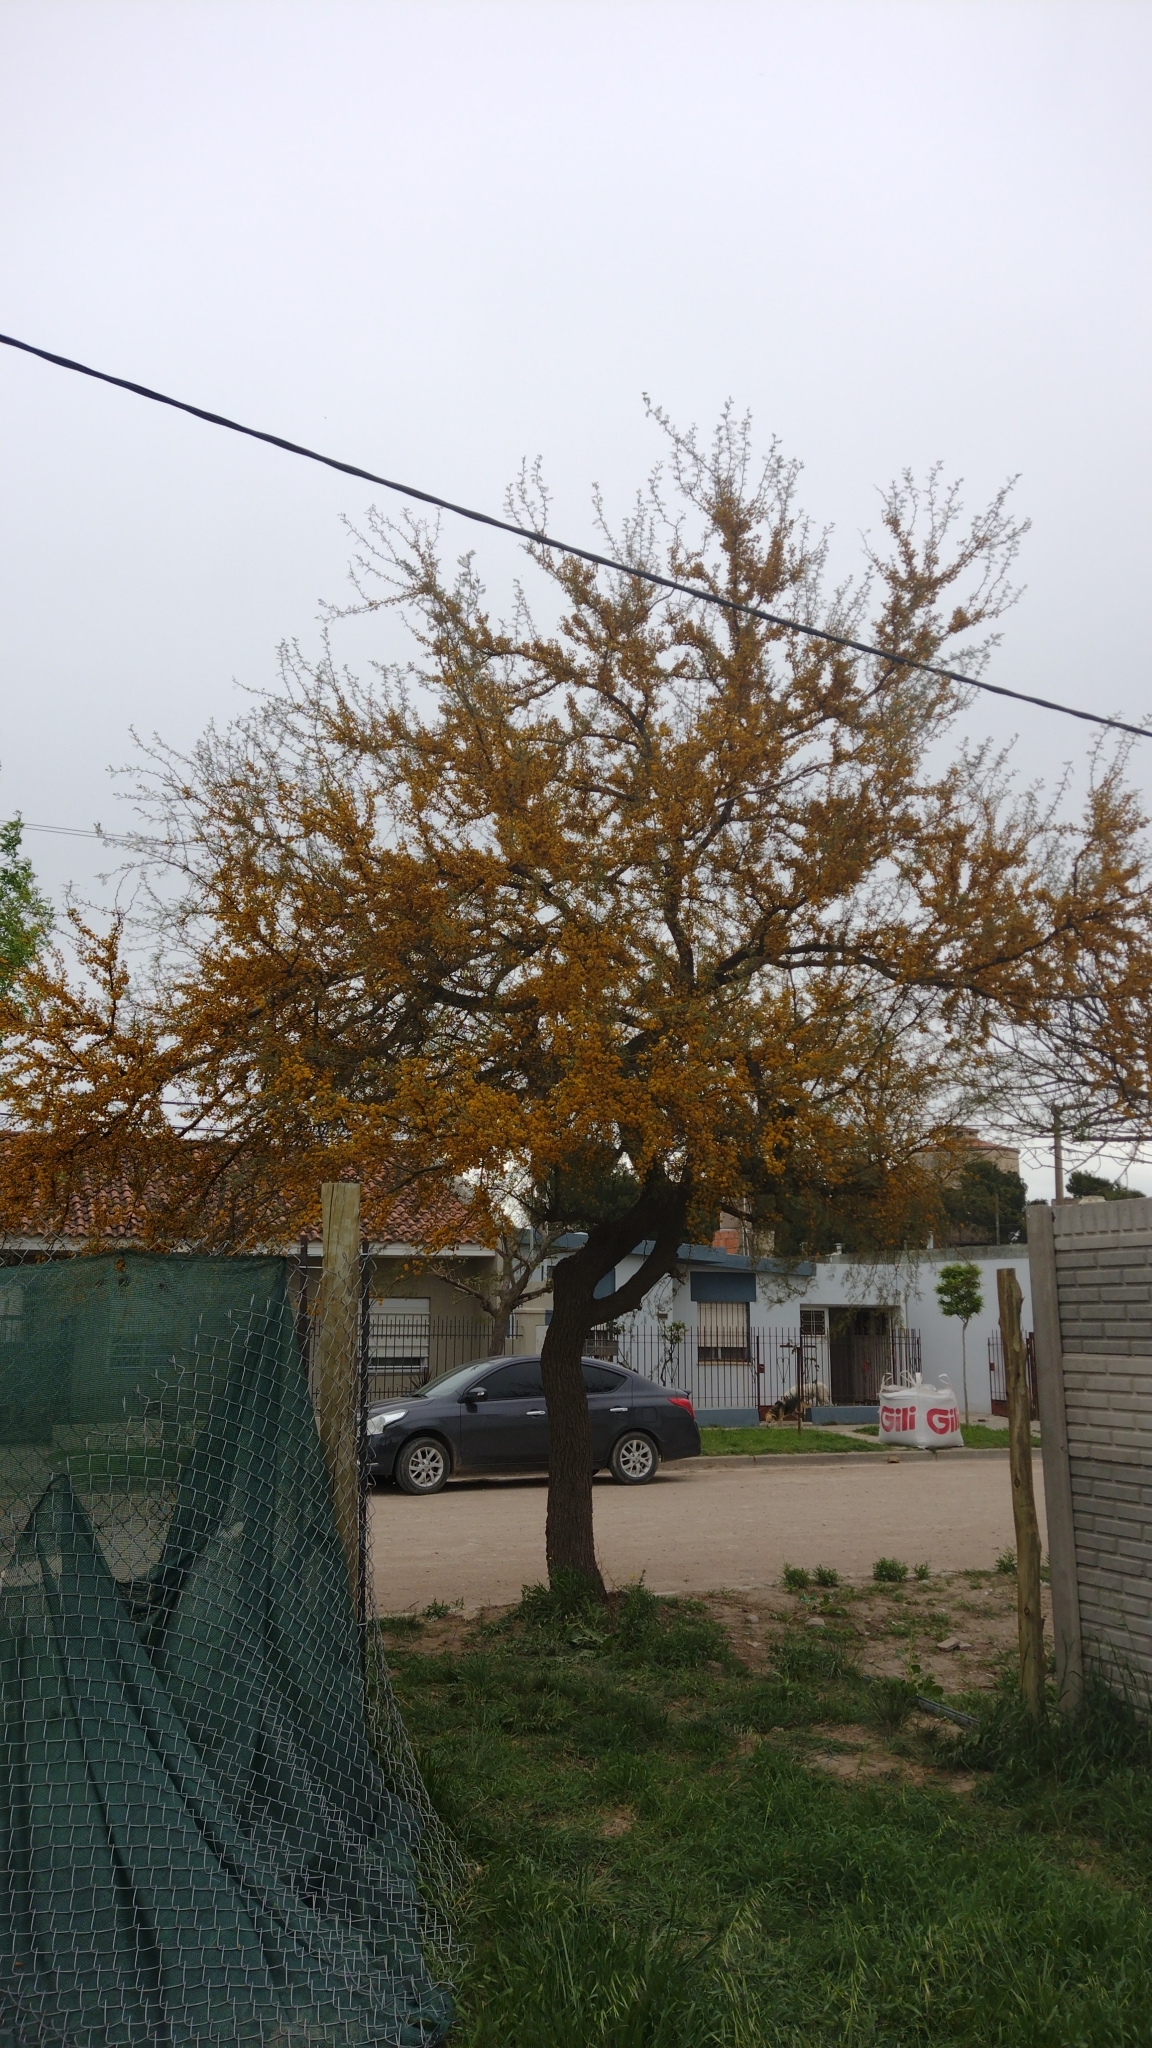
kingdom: Plantae
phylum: Tracheophyta
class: Magnoliopsida
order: Fabales
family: Fabaceae
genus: Vachellia
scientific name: Vachellia caven
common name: Roman cassie
